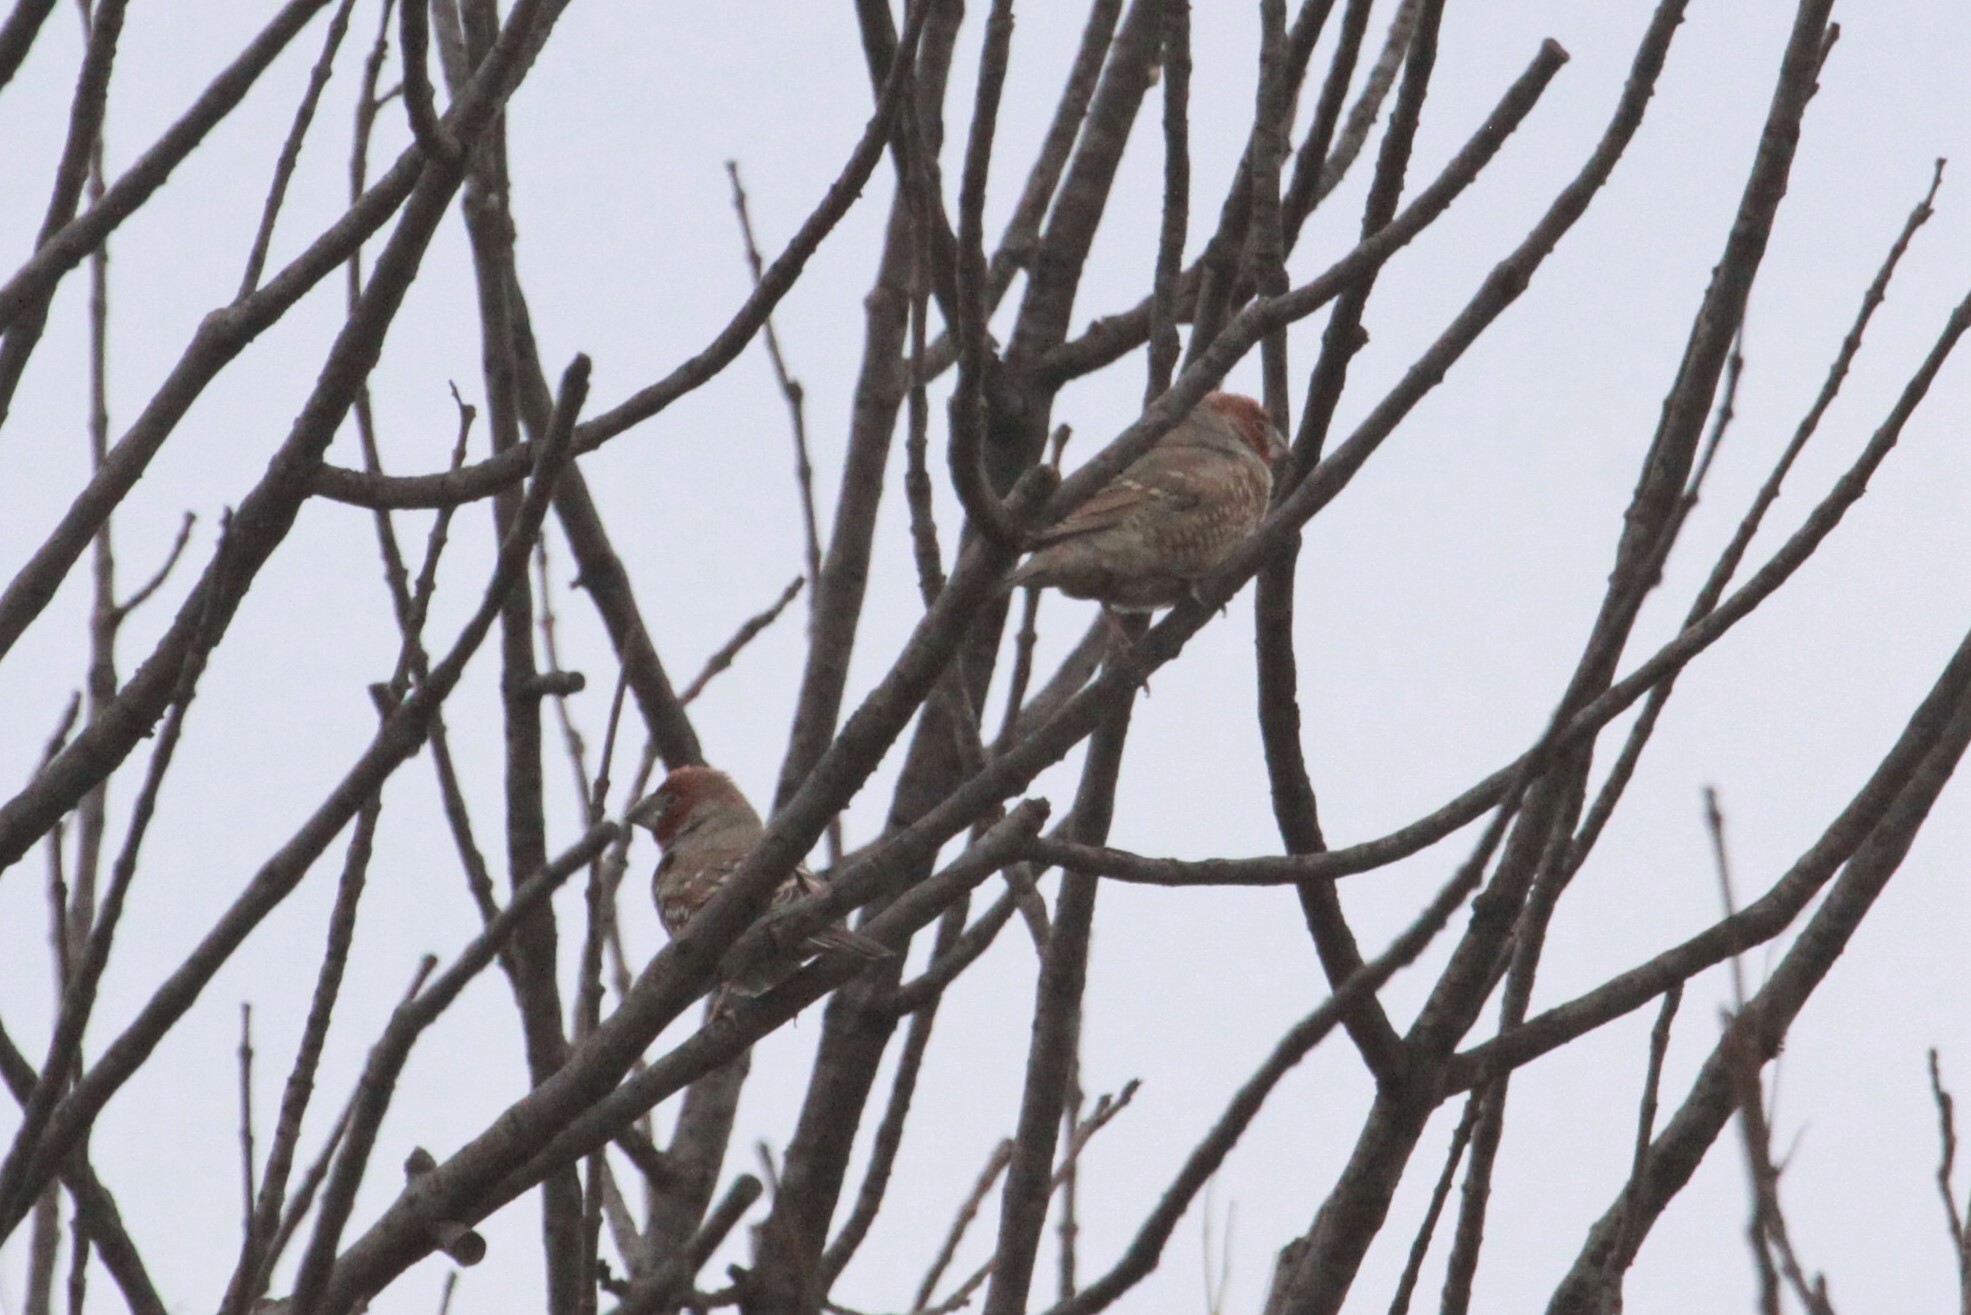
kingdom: Animalia
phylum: Chordata
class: Aves
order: Passeriformes
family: Estrildidae
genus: Amadina
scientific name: Amadina erythrocephala
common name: Red-headed finch
